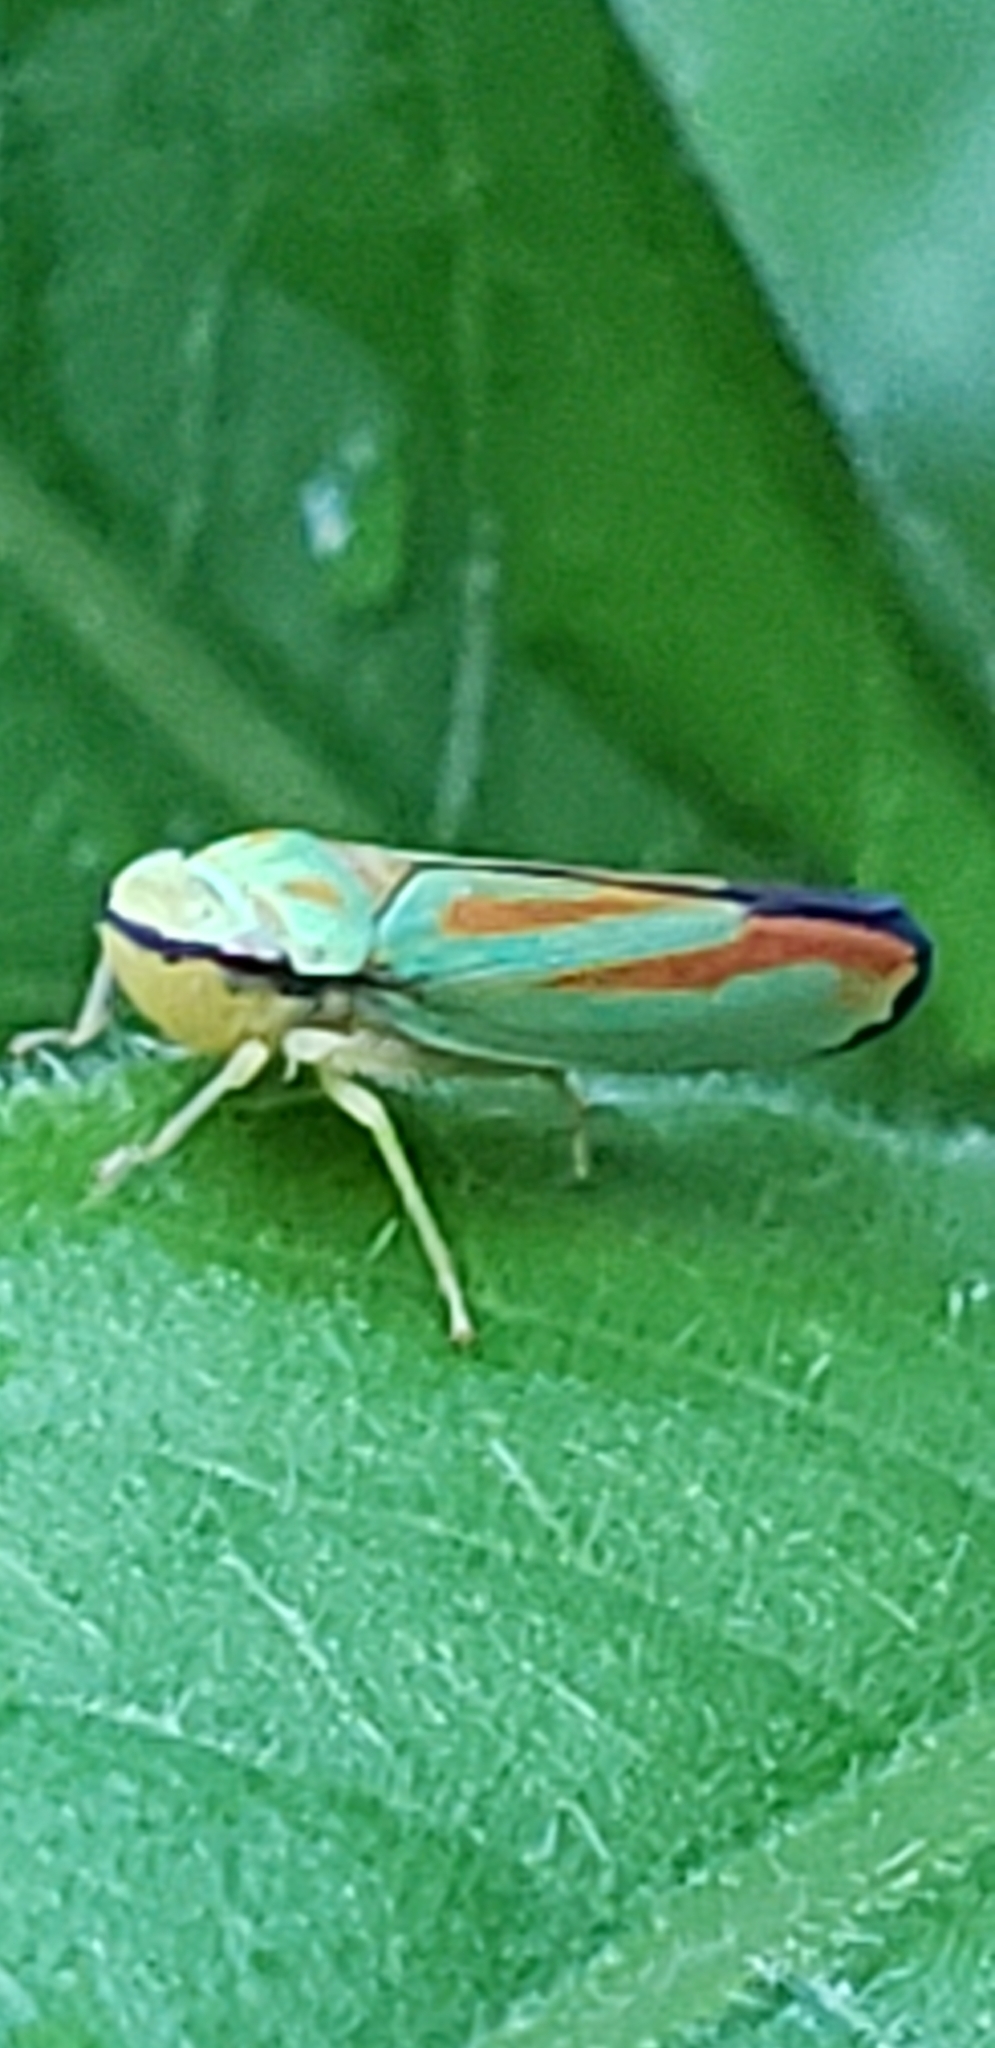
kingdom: Animalia
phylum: Arthropoda
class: Insecta
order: Hemiptera
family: Cicadellidae
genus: Graphocephala
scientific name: Graphocephala coccinea
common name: Candy-striped leafhopper
